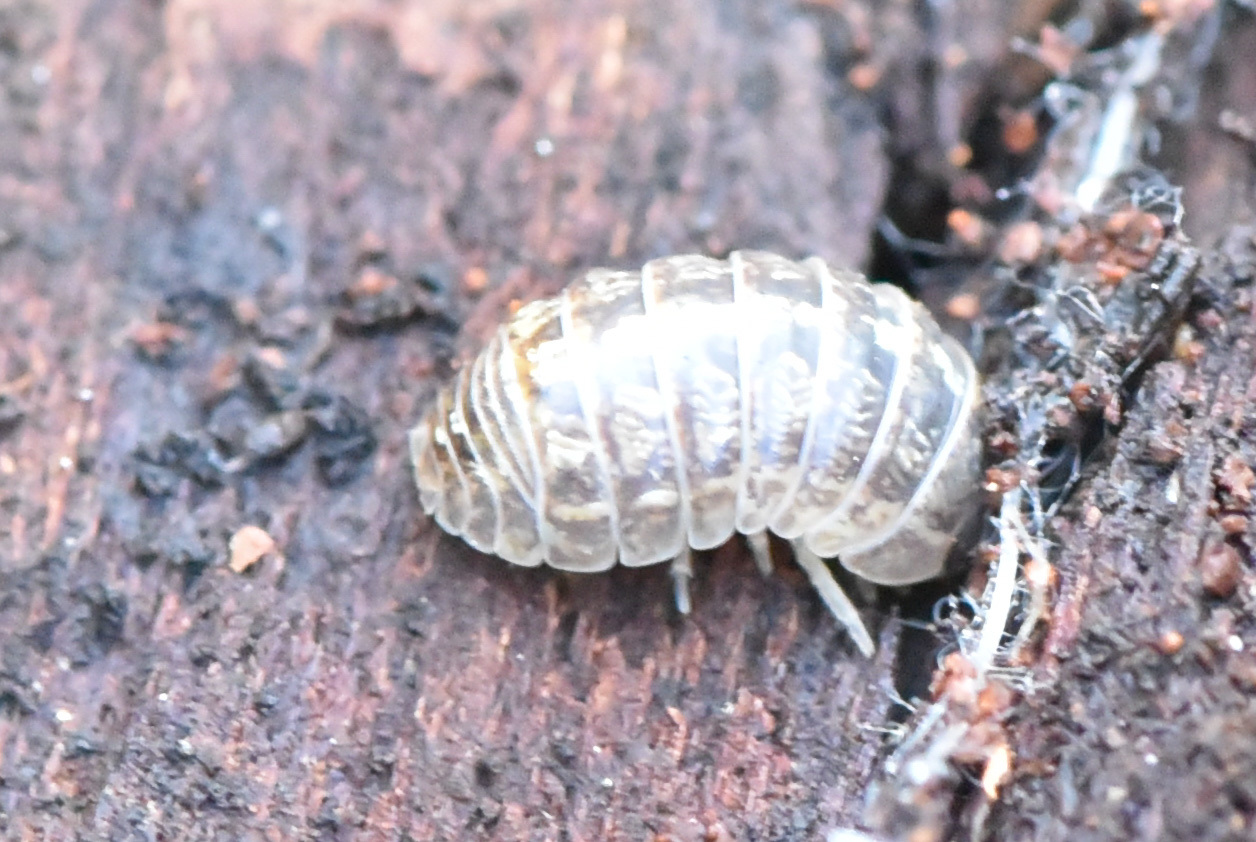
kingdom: Animalia
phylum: Arthropoda
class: Malacostraca
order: Isopoda
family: Armadillidiidae
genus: Armadillidium
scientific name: Armadillidium vulgare
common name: Common pill woodlouse
